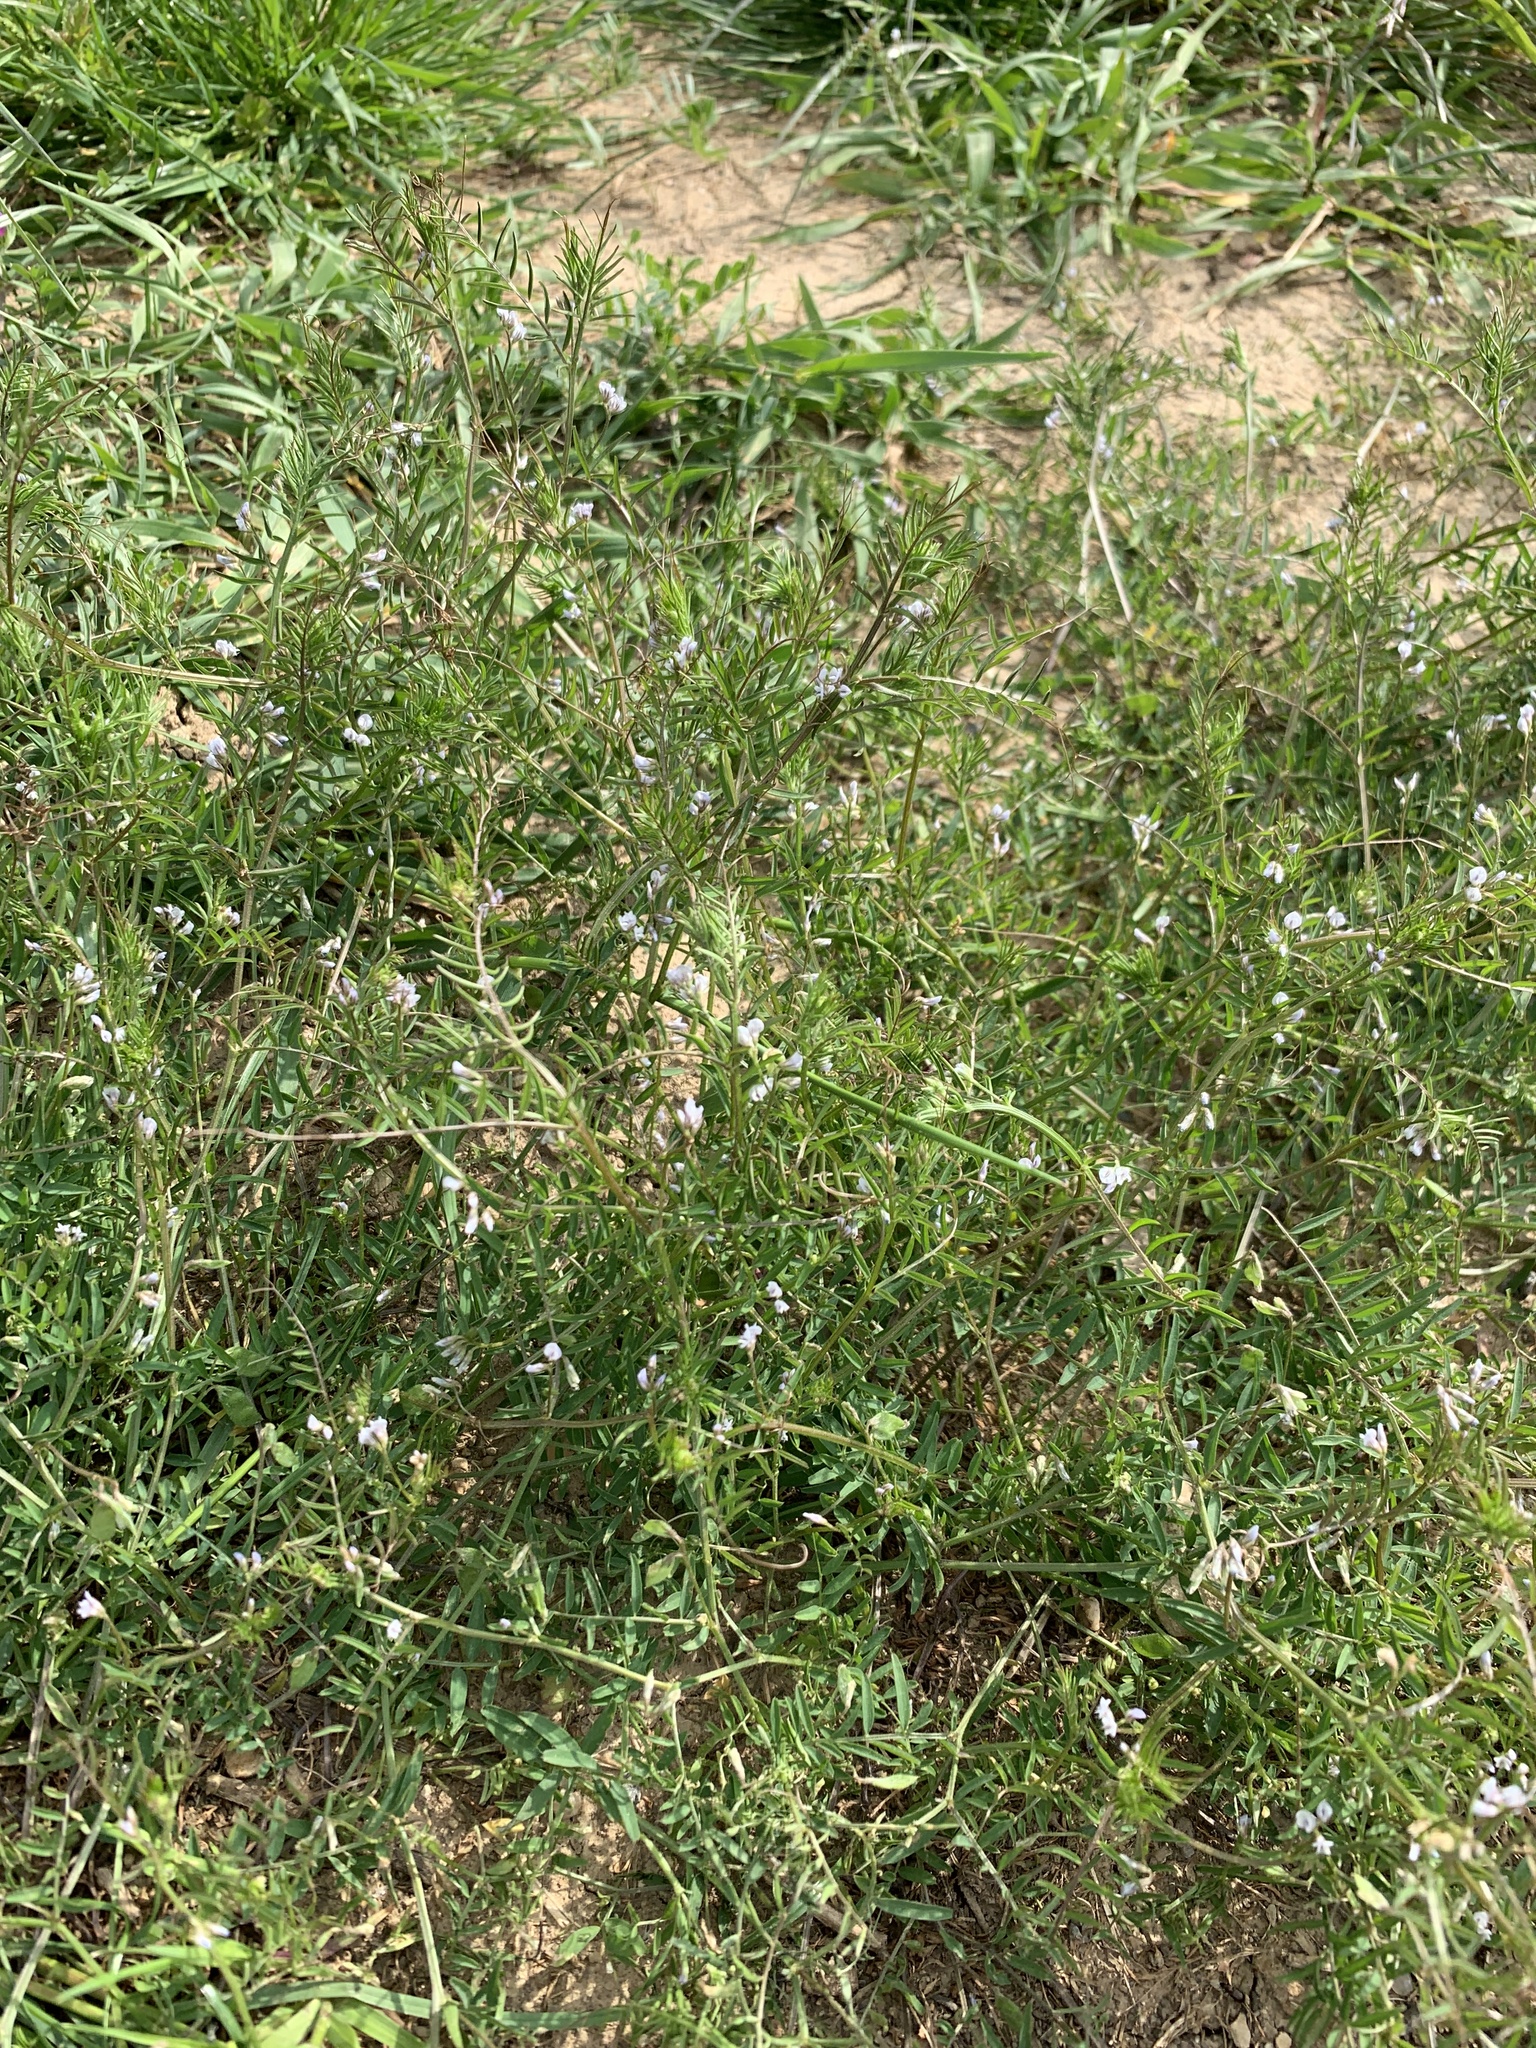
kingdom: Plantae
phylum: Tracheophyta
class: Magnoliopsida
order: Fabales
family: Fabaceae
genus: Vicia
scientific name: Vicia hirsuta
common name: Tiny vetch
